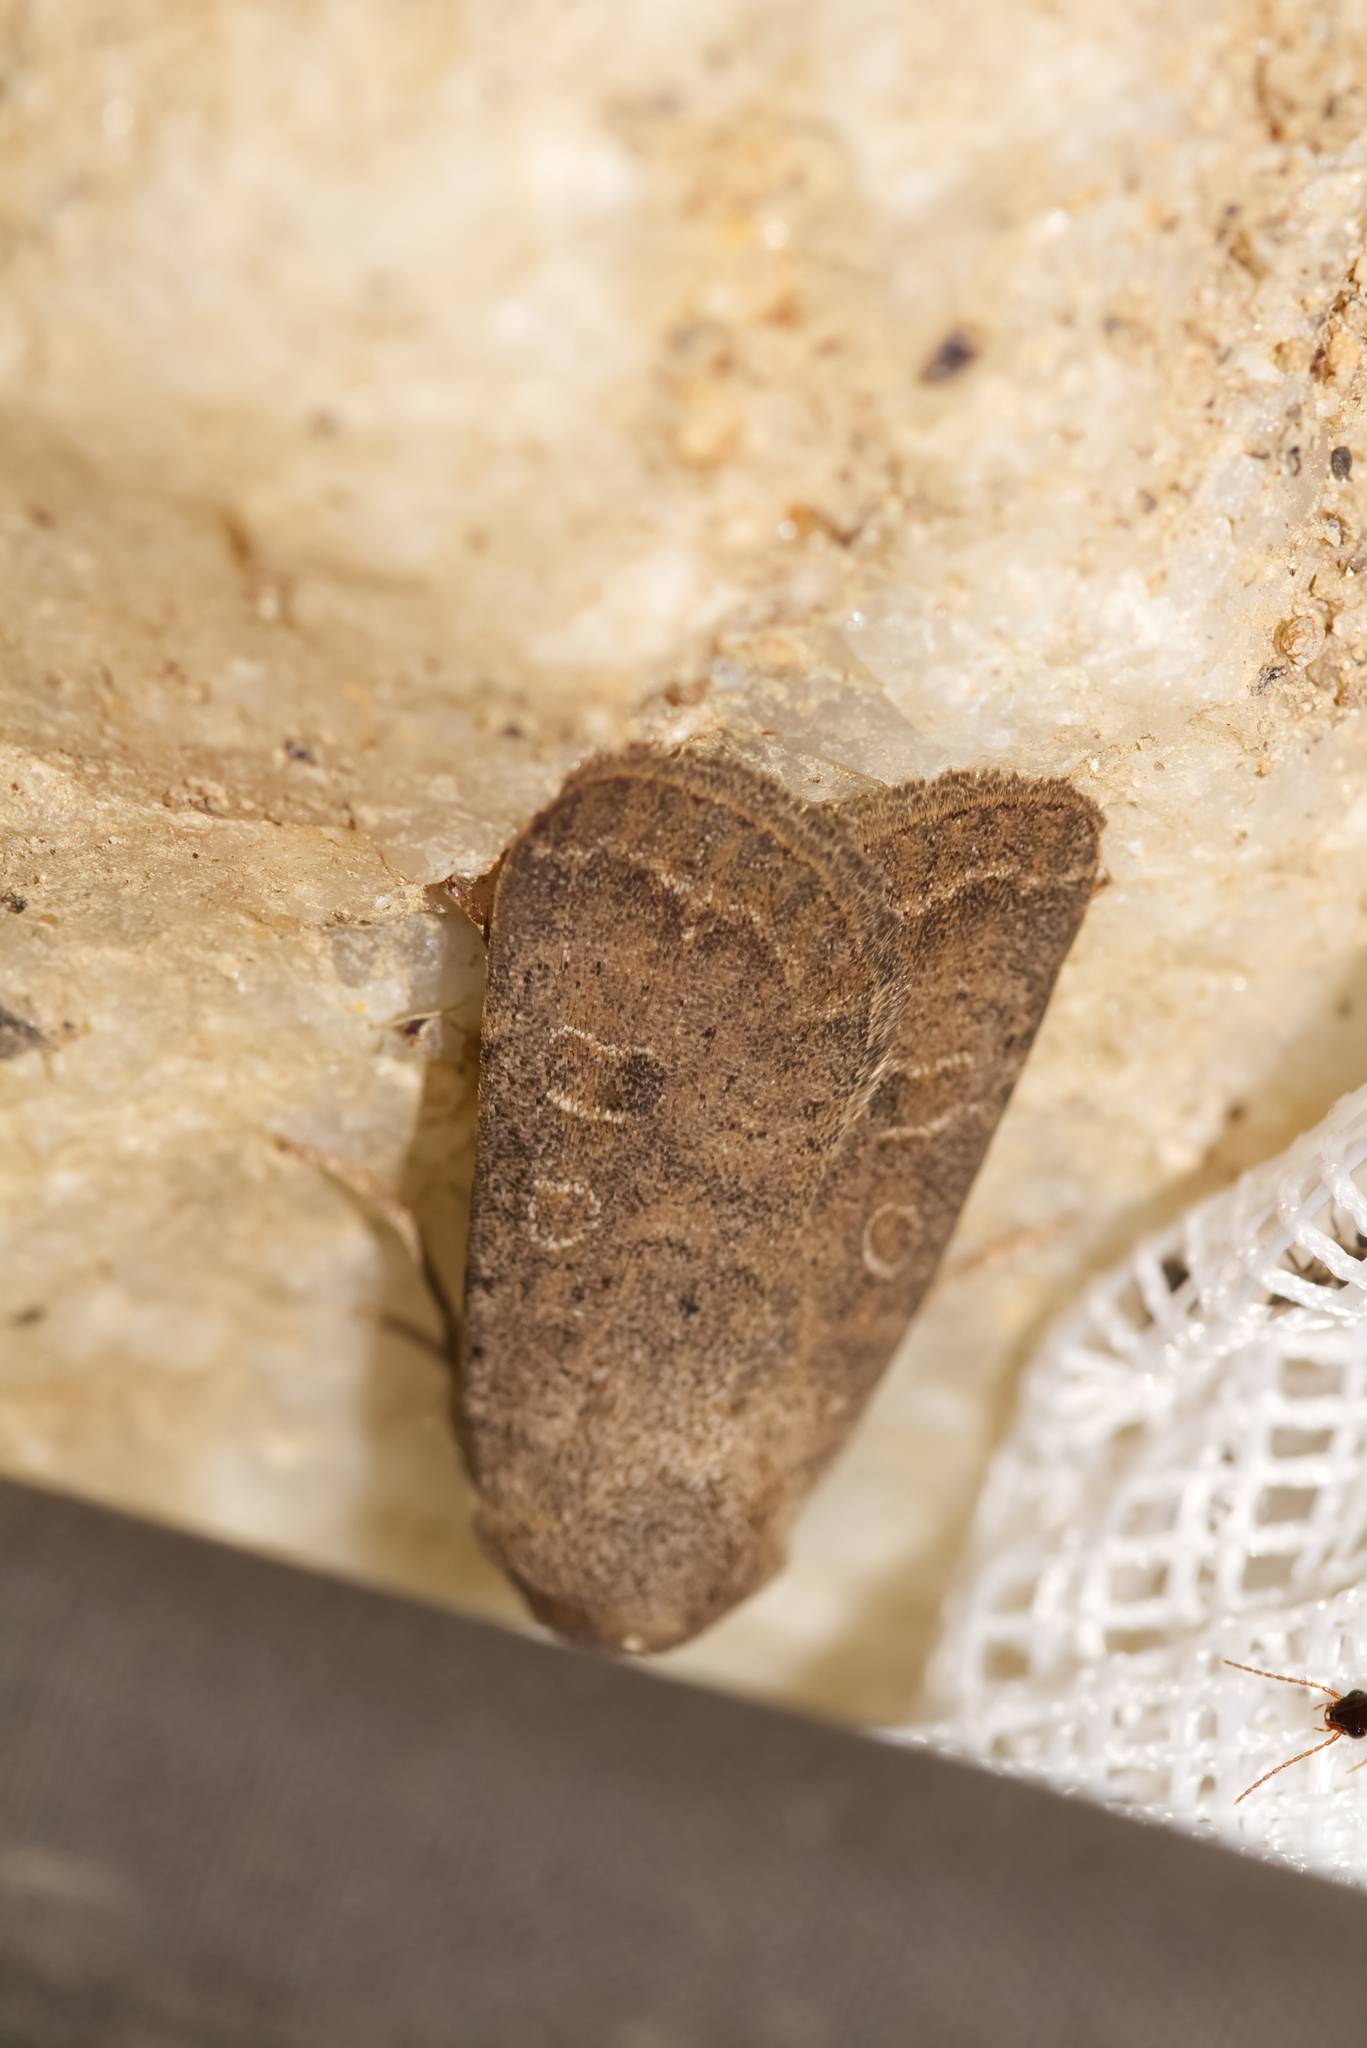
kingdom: Animalia
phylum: Arthropoda
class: Insecta
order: Lepidoptera
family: Noctuidae
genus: Hoplodrina
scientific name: Hoplodrina blanda
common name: Rustic
